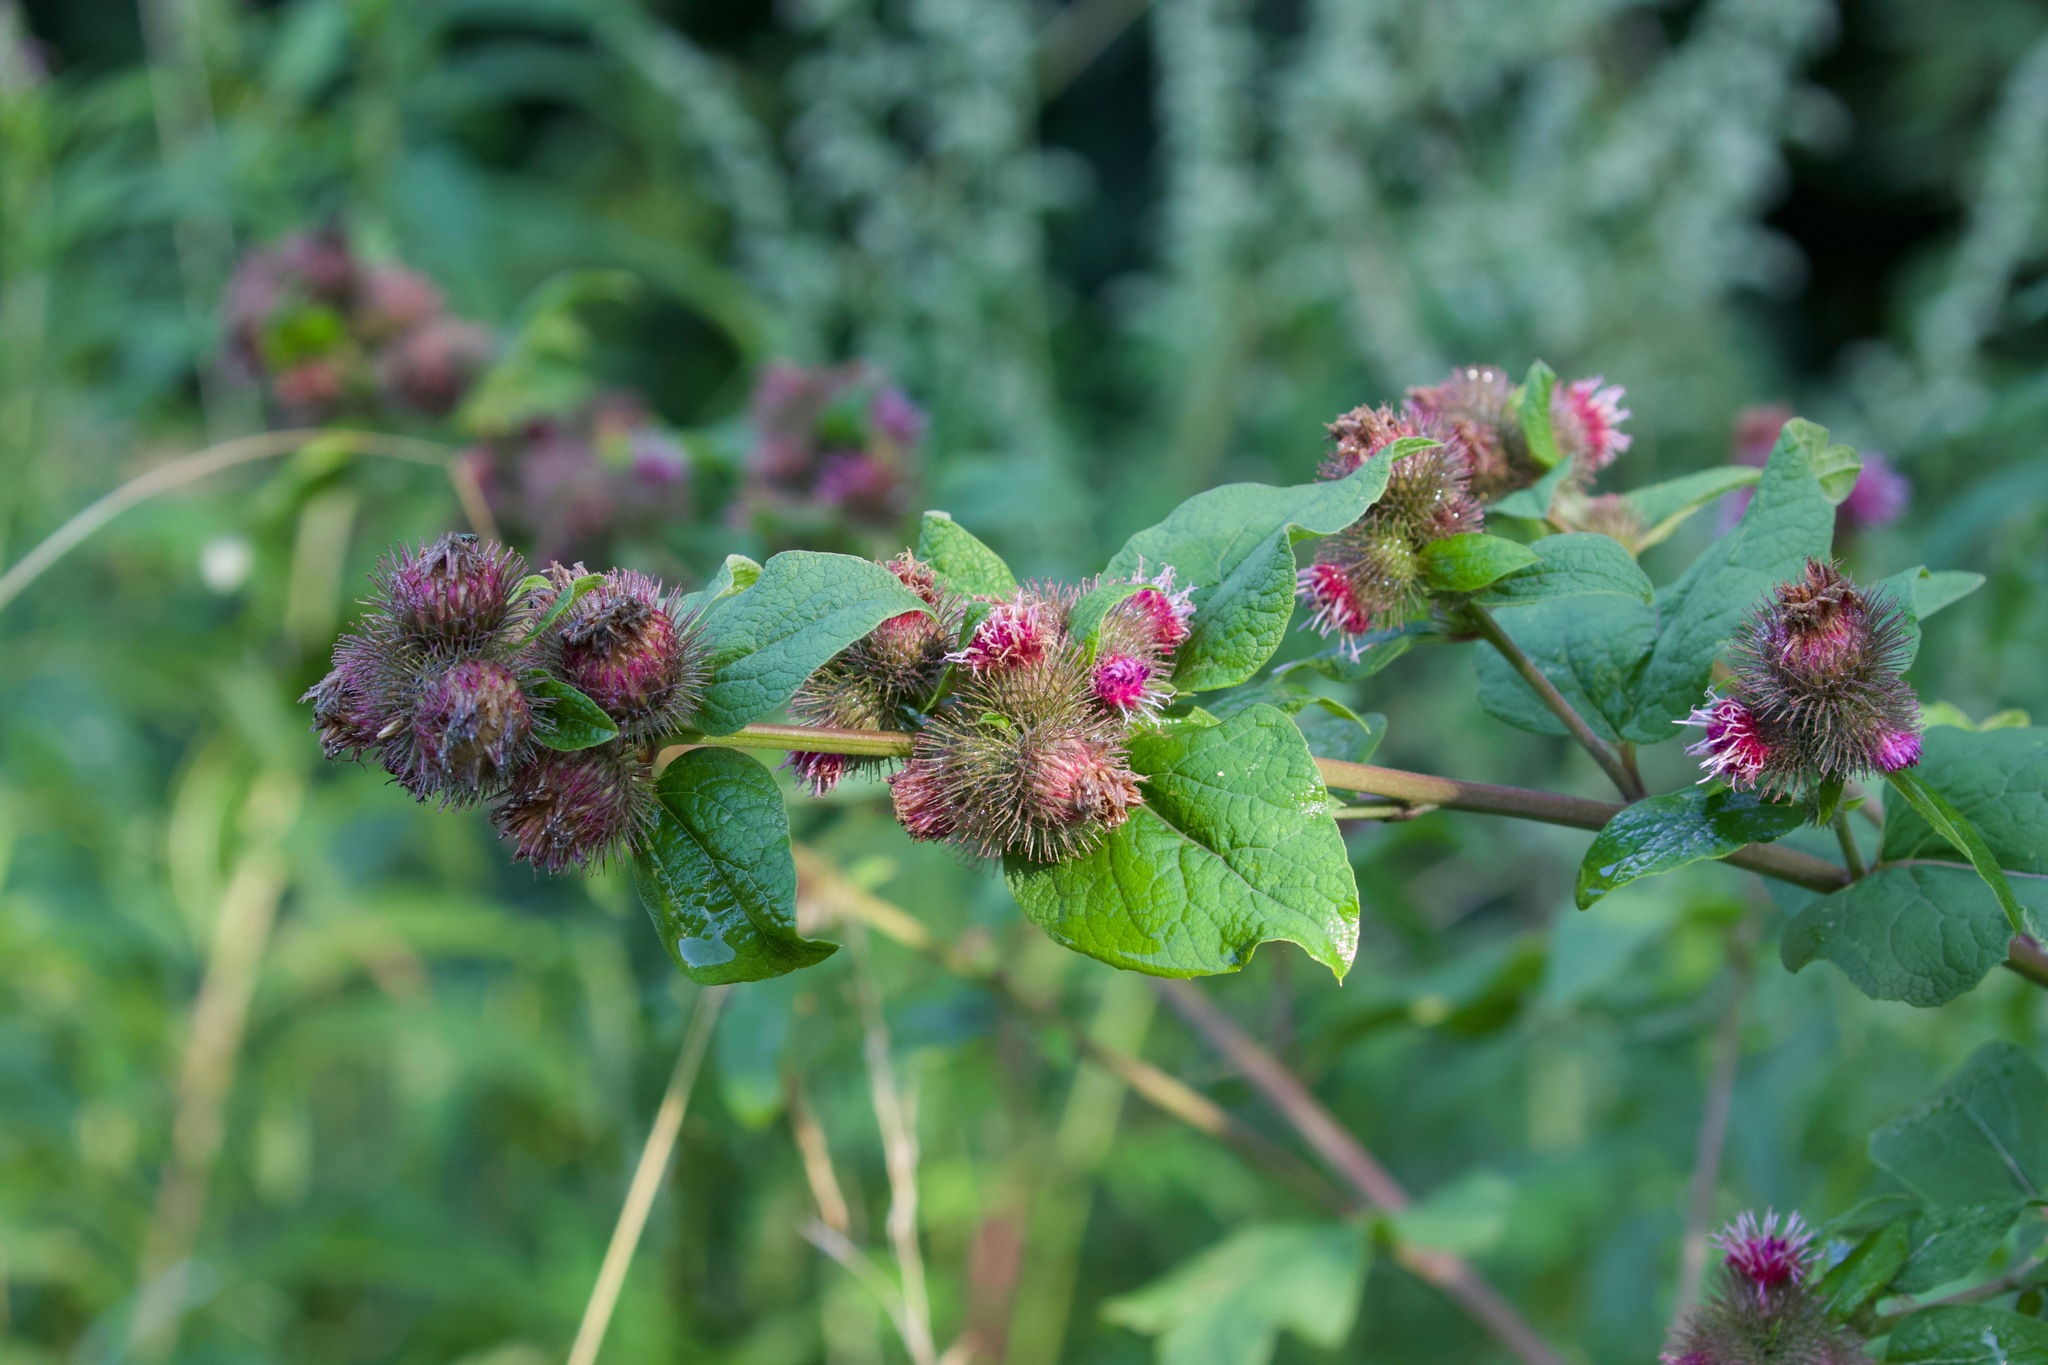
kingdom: Plantae
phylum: Tracheophyta
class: Magnoliopsida
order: Asterales
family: Asteraceae
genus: Arctium
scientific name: Arctium minus
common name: Lesser burdock
